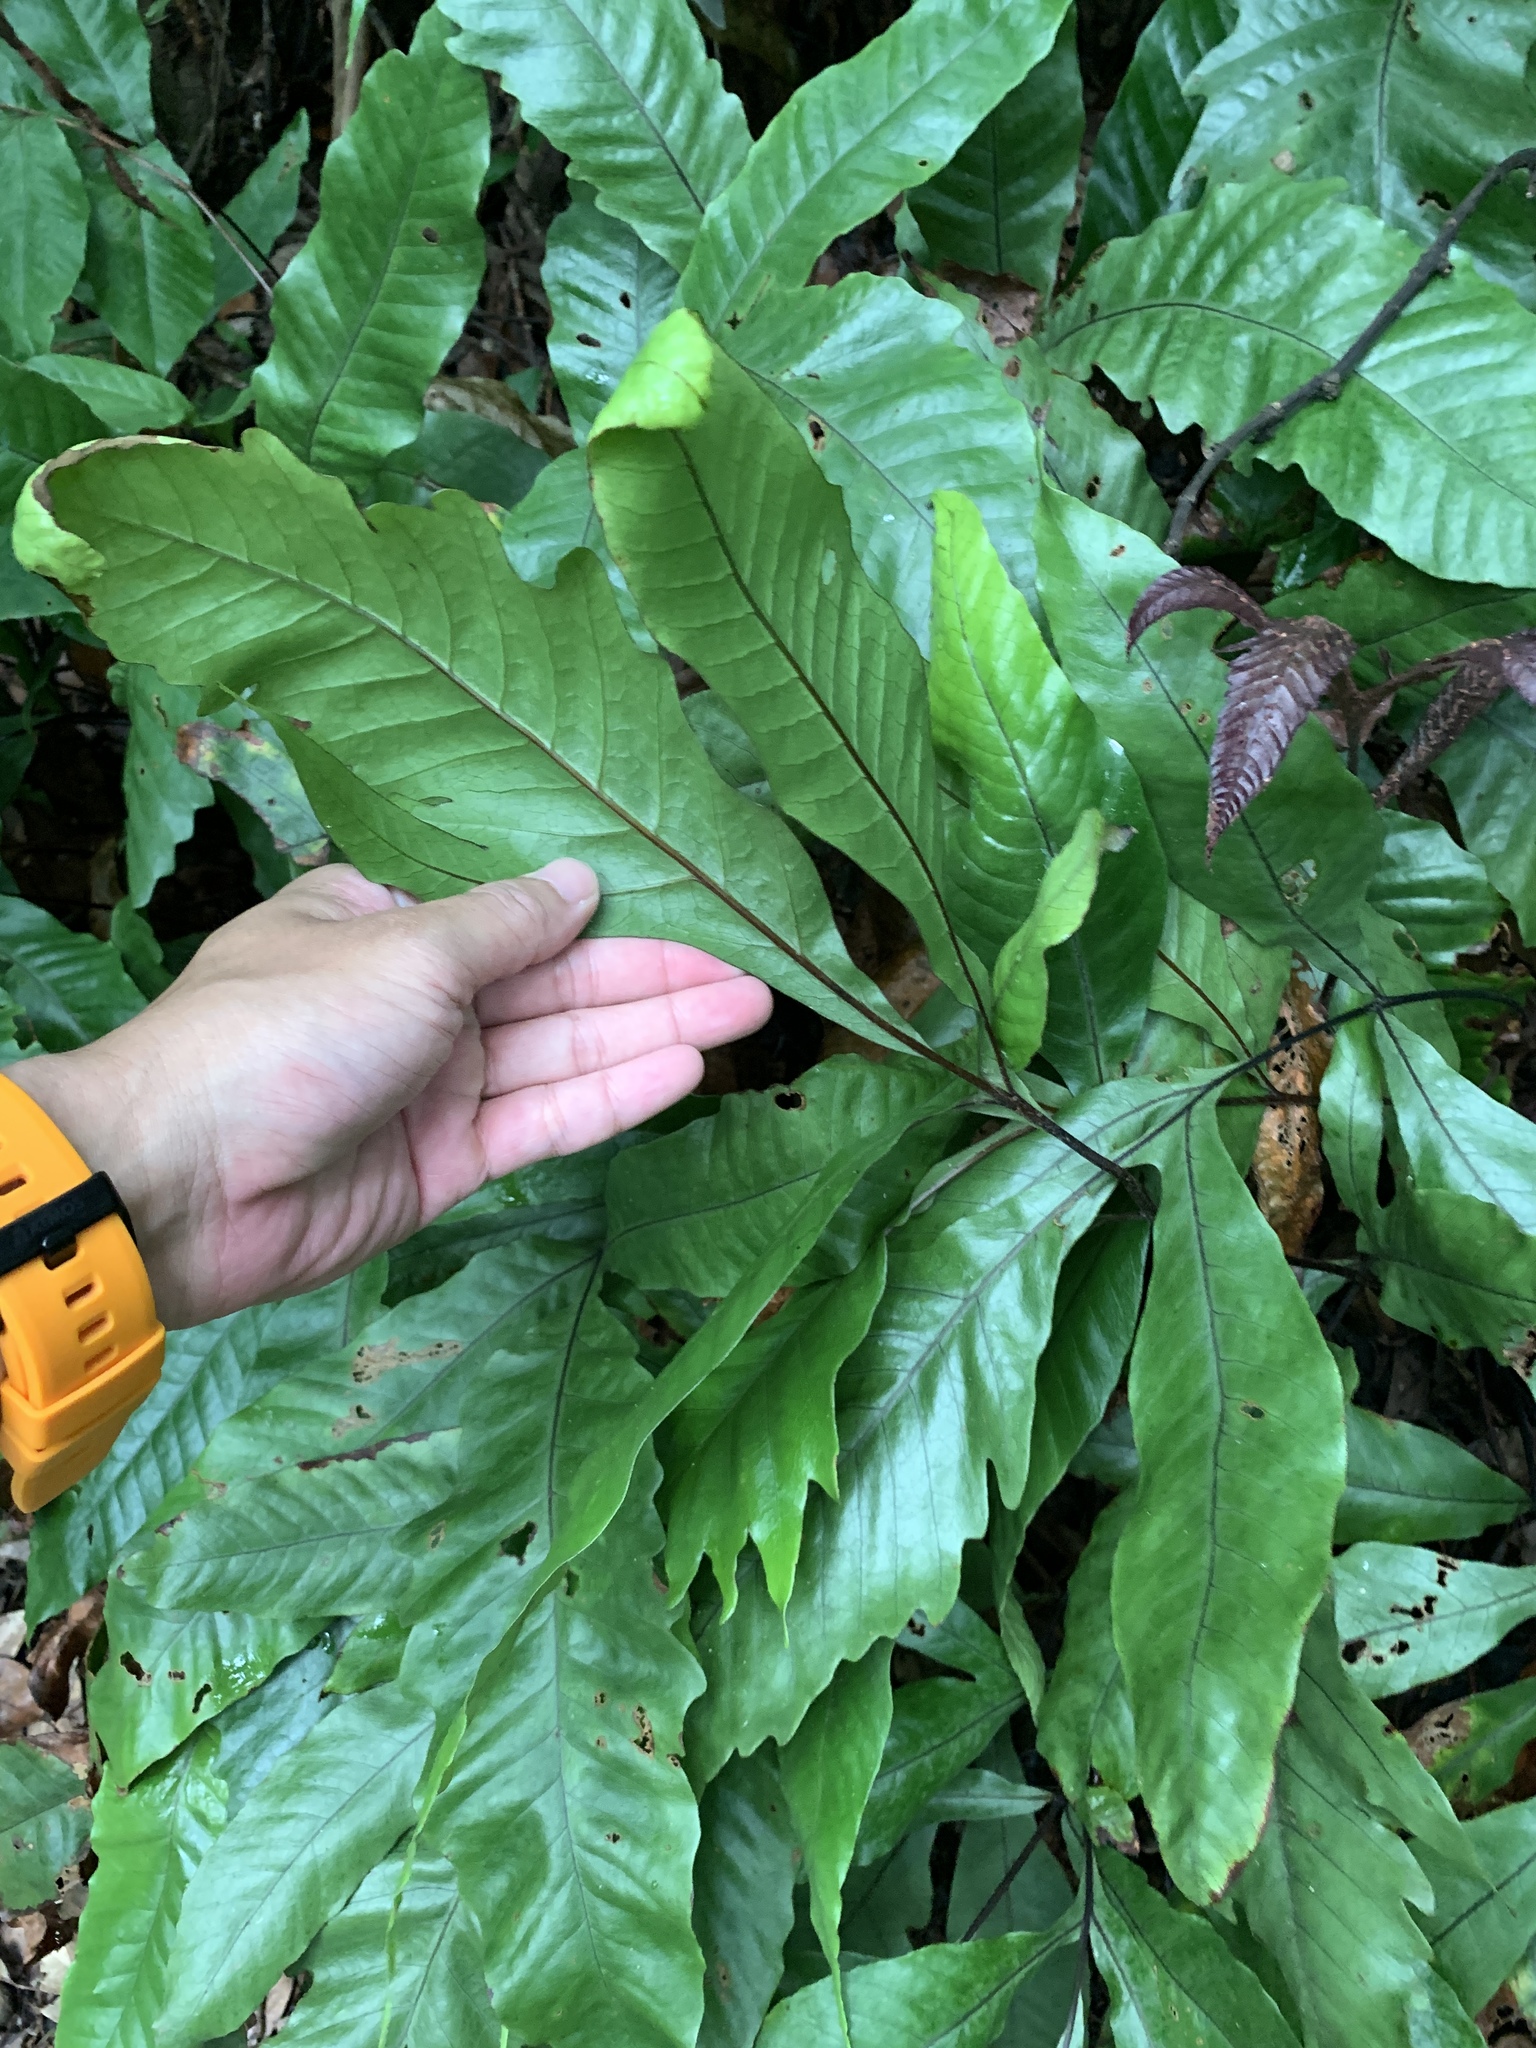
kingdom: Plantae
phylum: Tracheophyta
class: Polypodiopsida
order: Polypodiales
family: Tectariaceae
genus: Tectaria
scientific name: Tectaria harlandii
